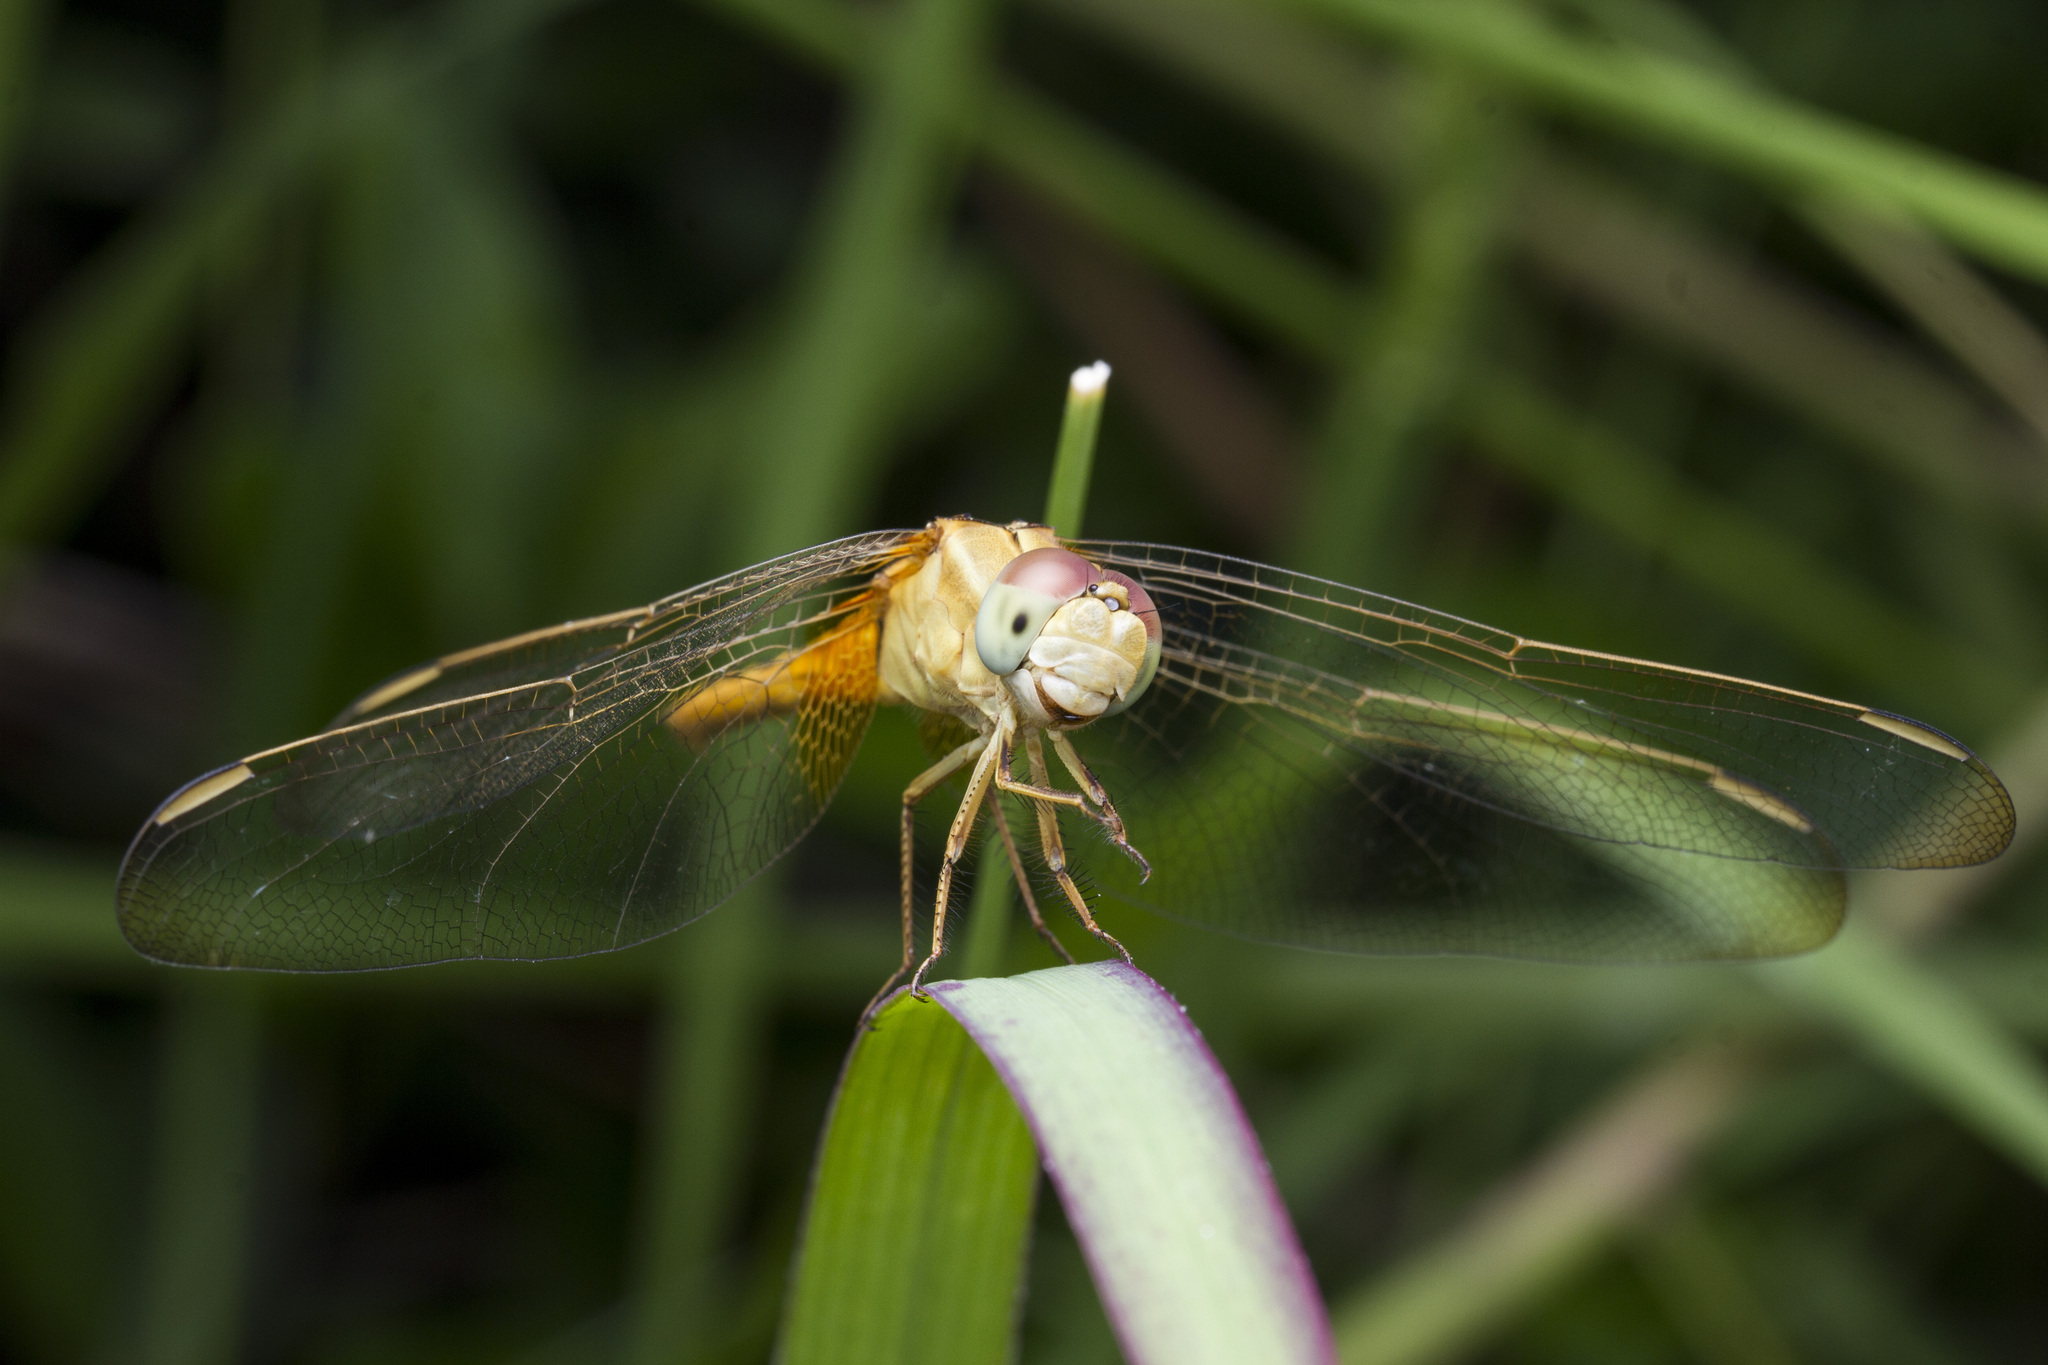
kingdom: Animalia
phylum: Arthropoda
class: Insecta
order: Odonata
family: Libellulidae
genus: Crocothemis
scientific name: Crocothemis servilia
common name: Scarlet skimmer
